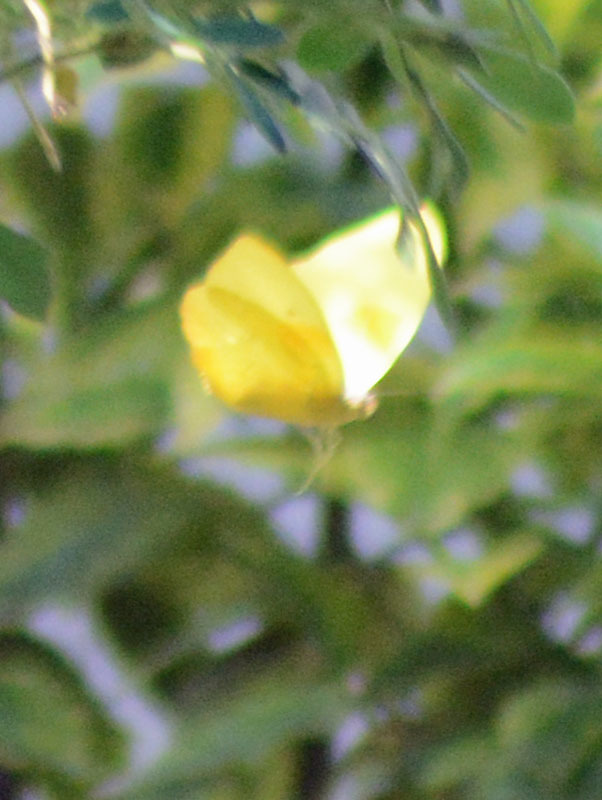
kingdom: Animalia
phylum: Arthropoda
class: Insecta
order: Lepidoptera
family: Pieridae
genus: Phoebis
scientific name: Phoebis philea
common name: Orange-barred giant sulphur
